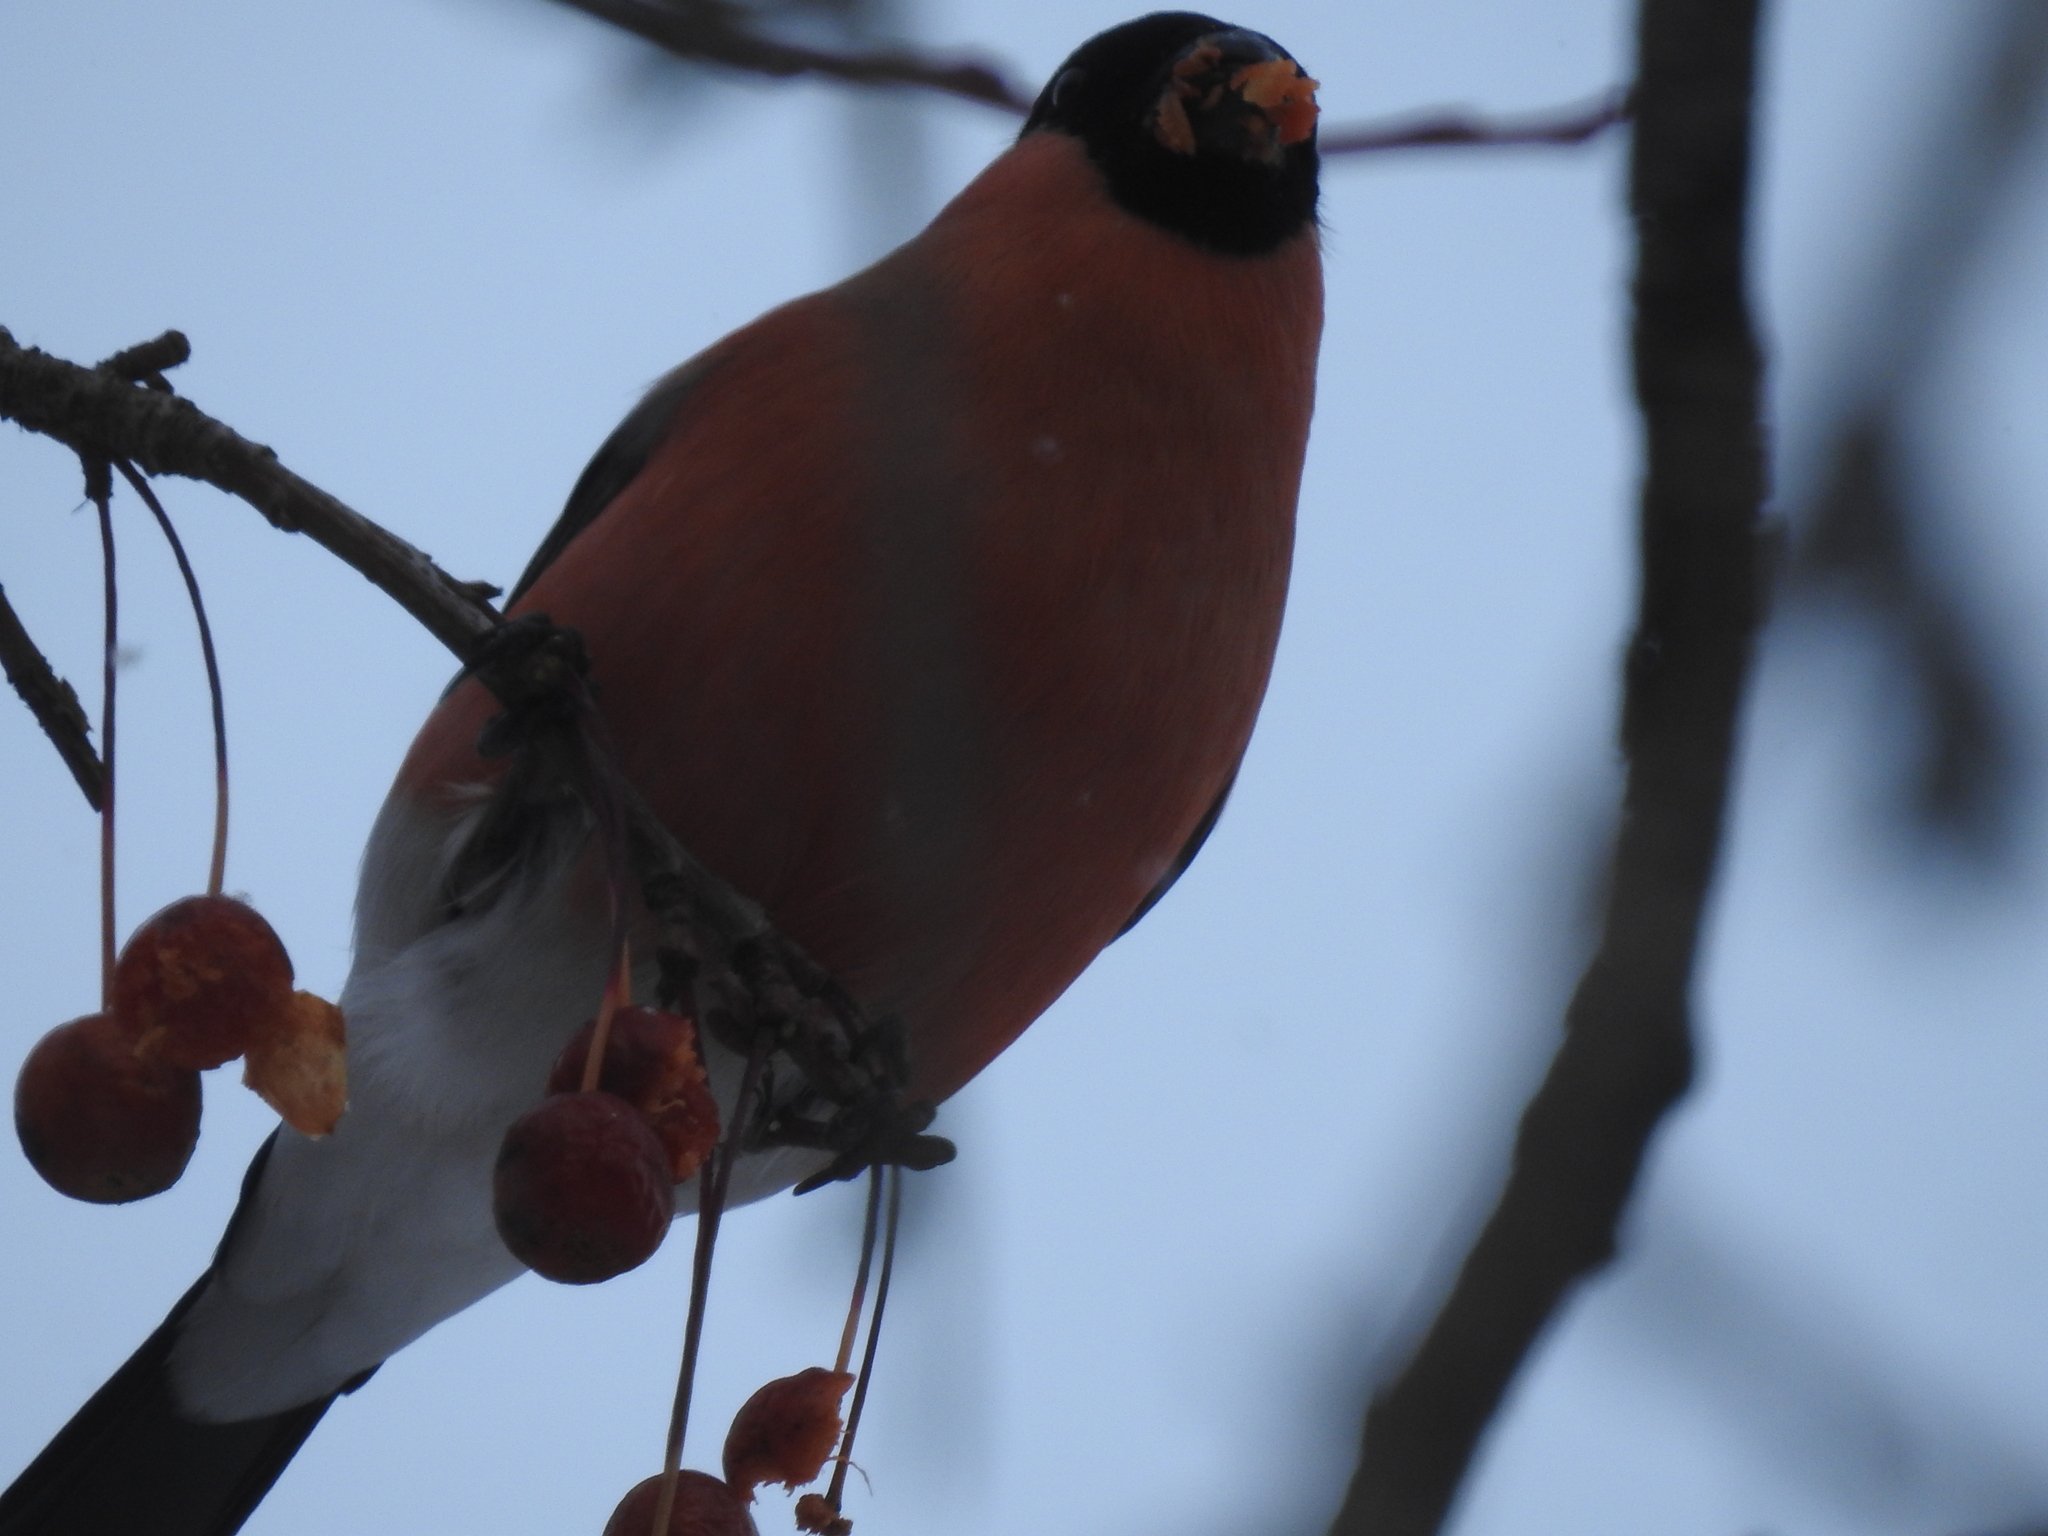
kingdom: Animalia
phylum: Chordata
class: Aves
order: Passeriformes
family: Fringillidae
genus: Pyrrhula
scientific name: Pyrrhula pyrrhula
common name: Eurasian bullfinch
